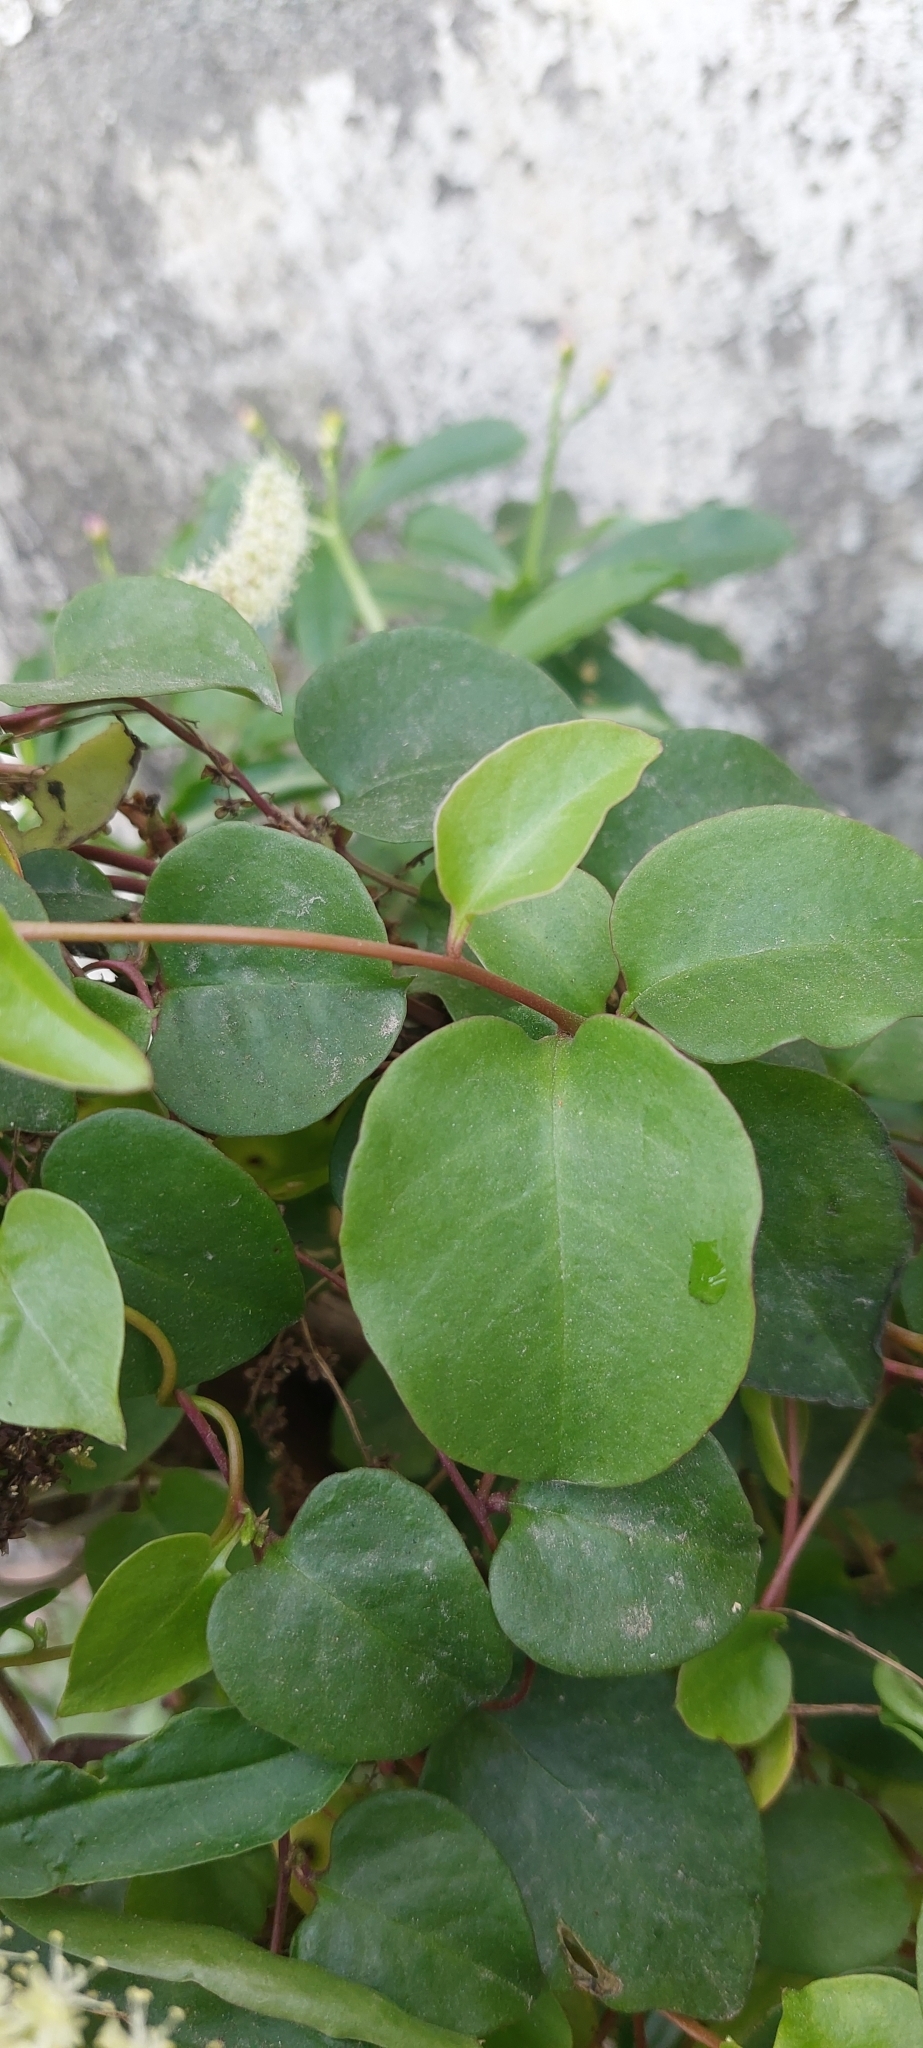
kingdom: Plantae
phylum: Tracheophyta
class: Magnoliopsida
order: Caryophyllales
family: Basellaceae
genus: Anredera
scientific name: Anredera cordifolia
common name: Heartleaf madeiravine
